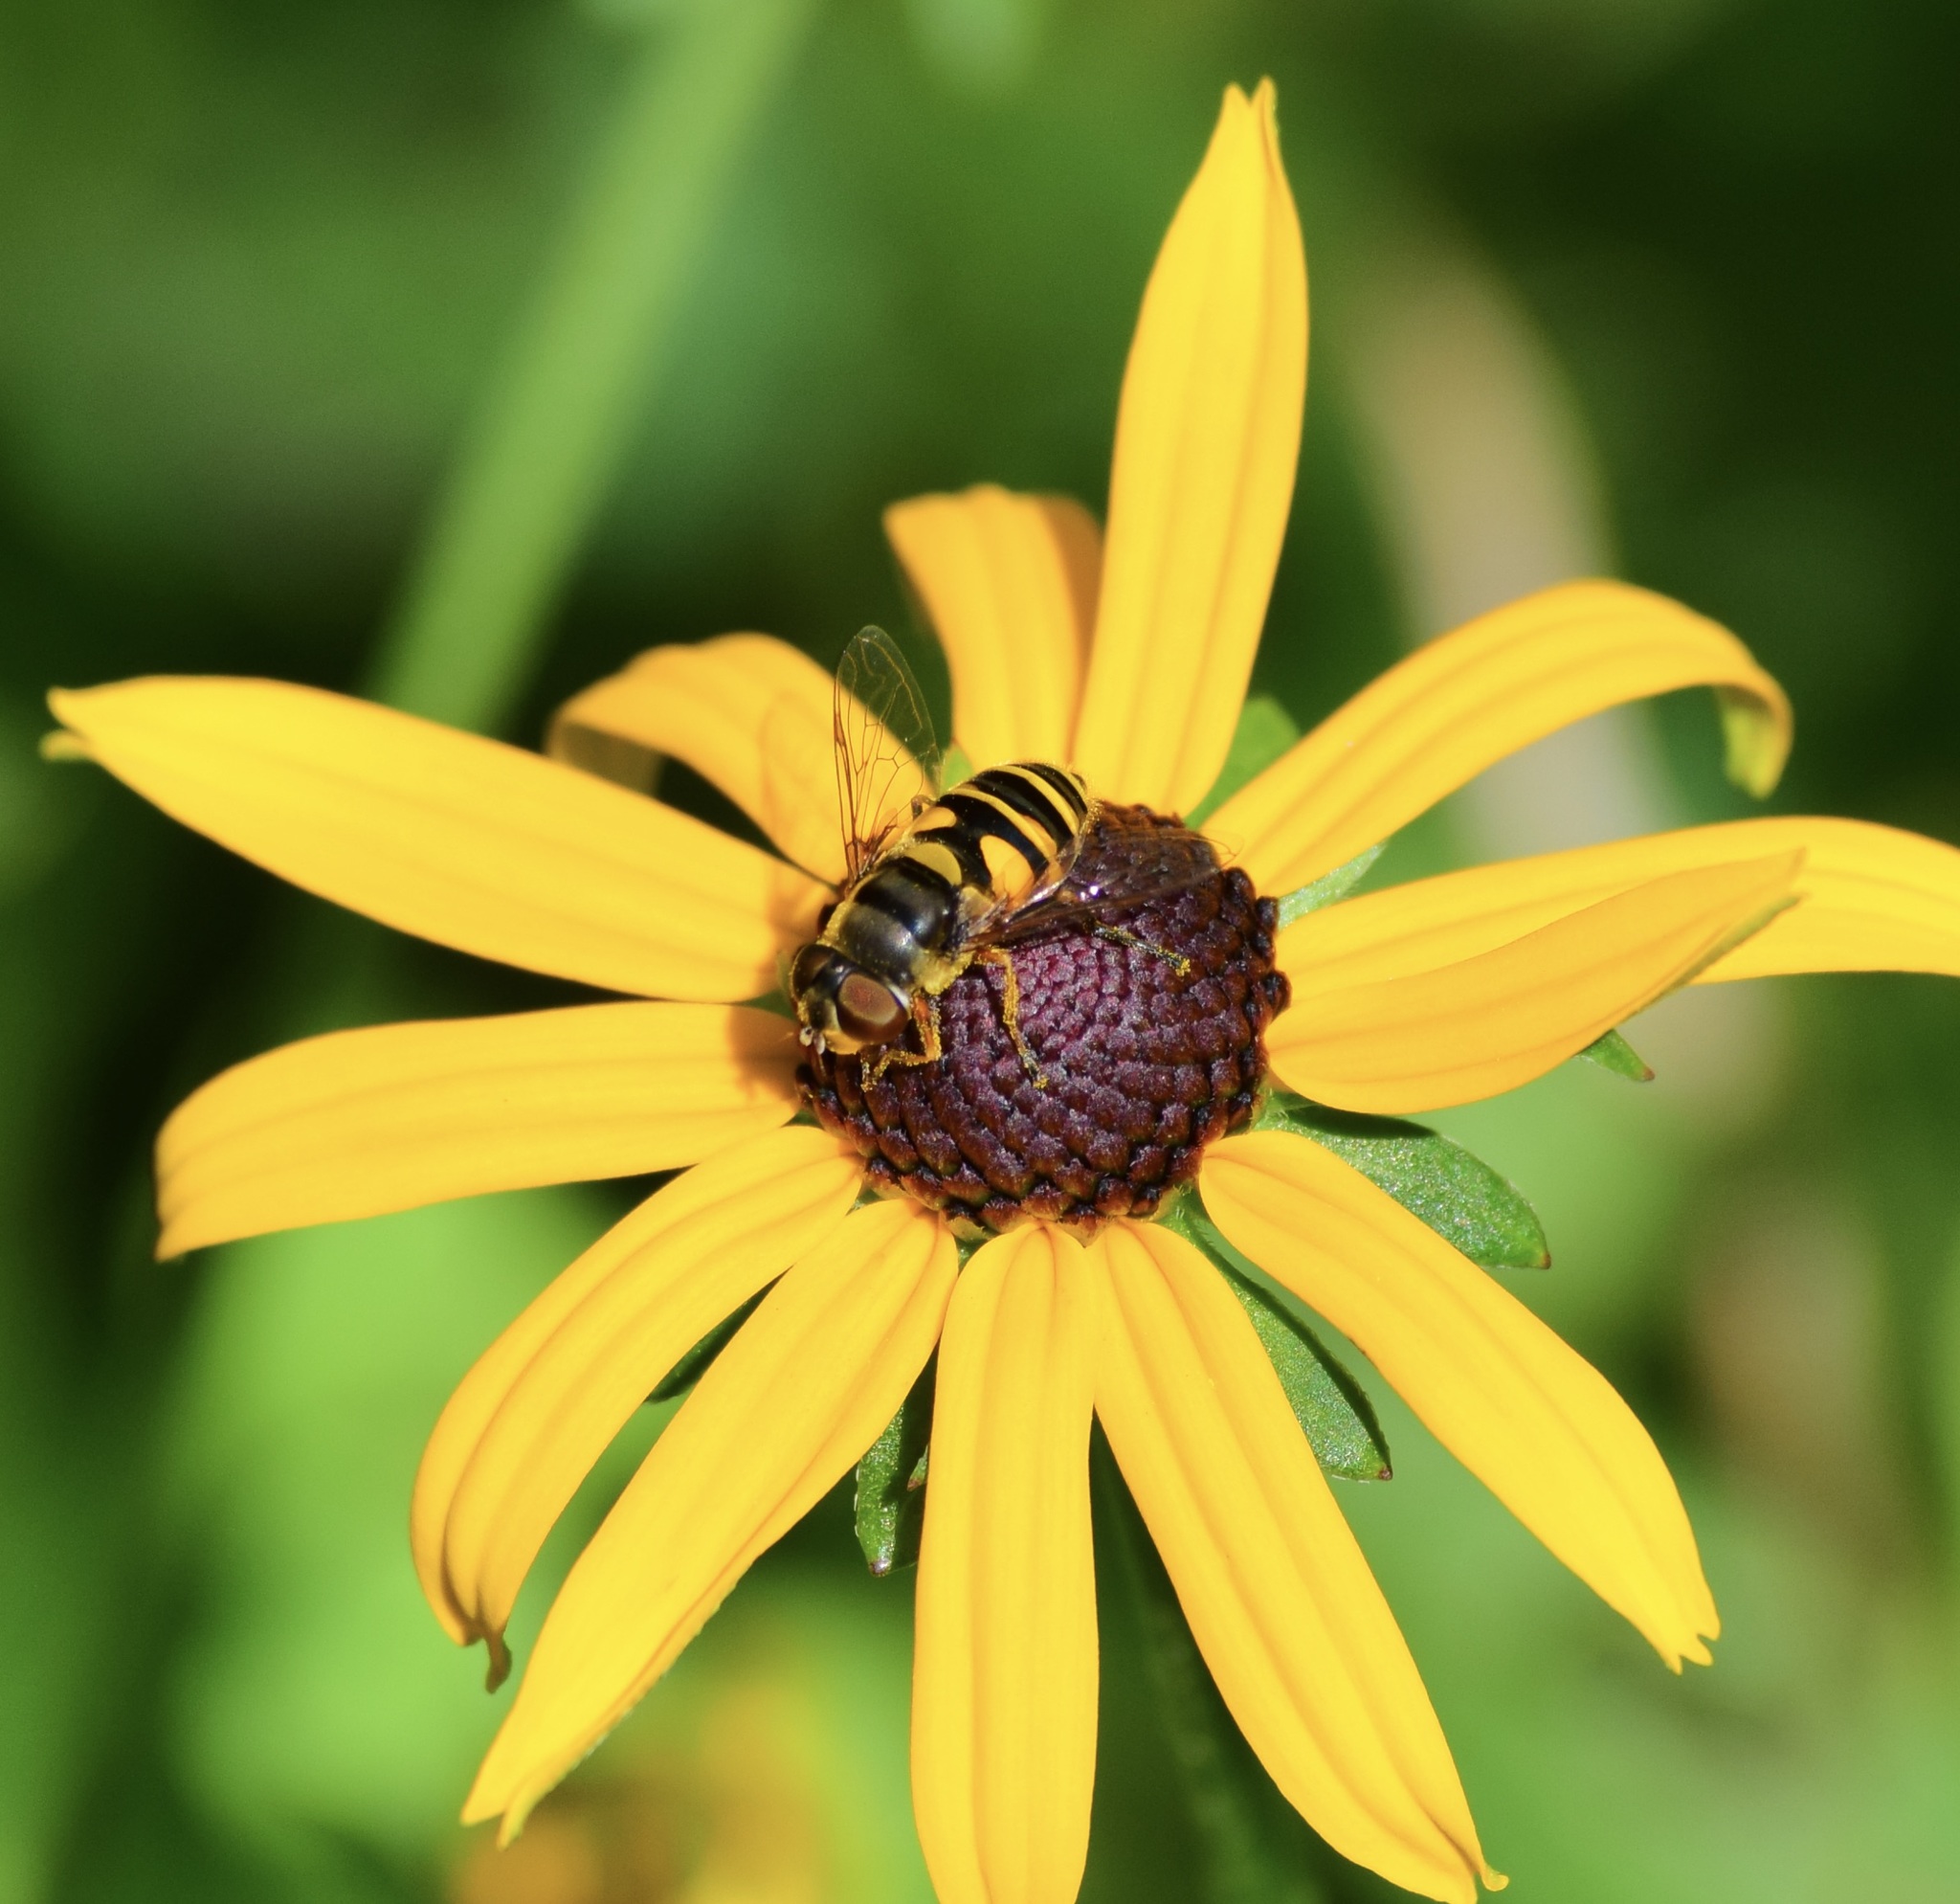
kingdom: Animalia
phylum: Arthropoda
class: Insecta
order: Diptera
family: Syrphidae
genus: Eristalis
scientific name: Eristalis transversa
